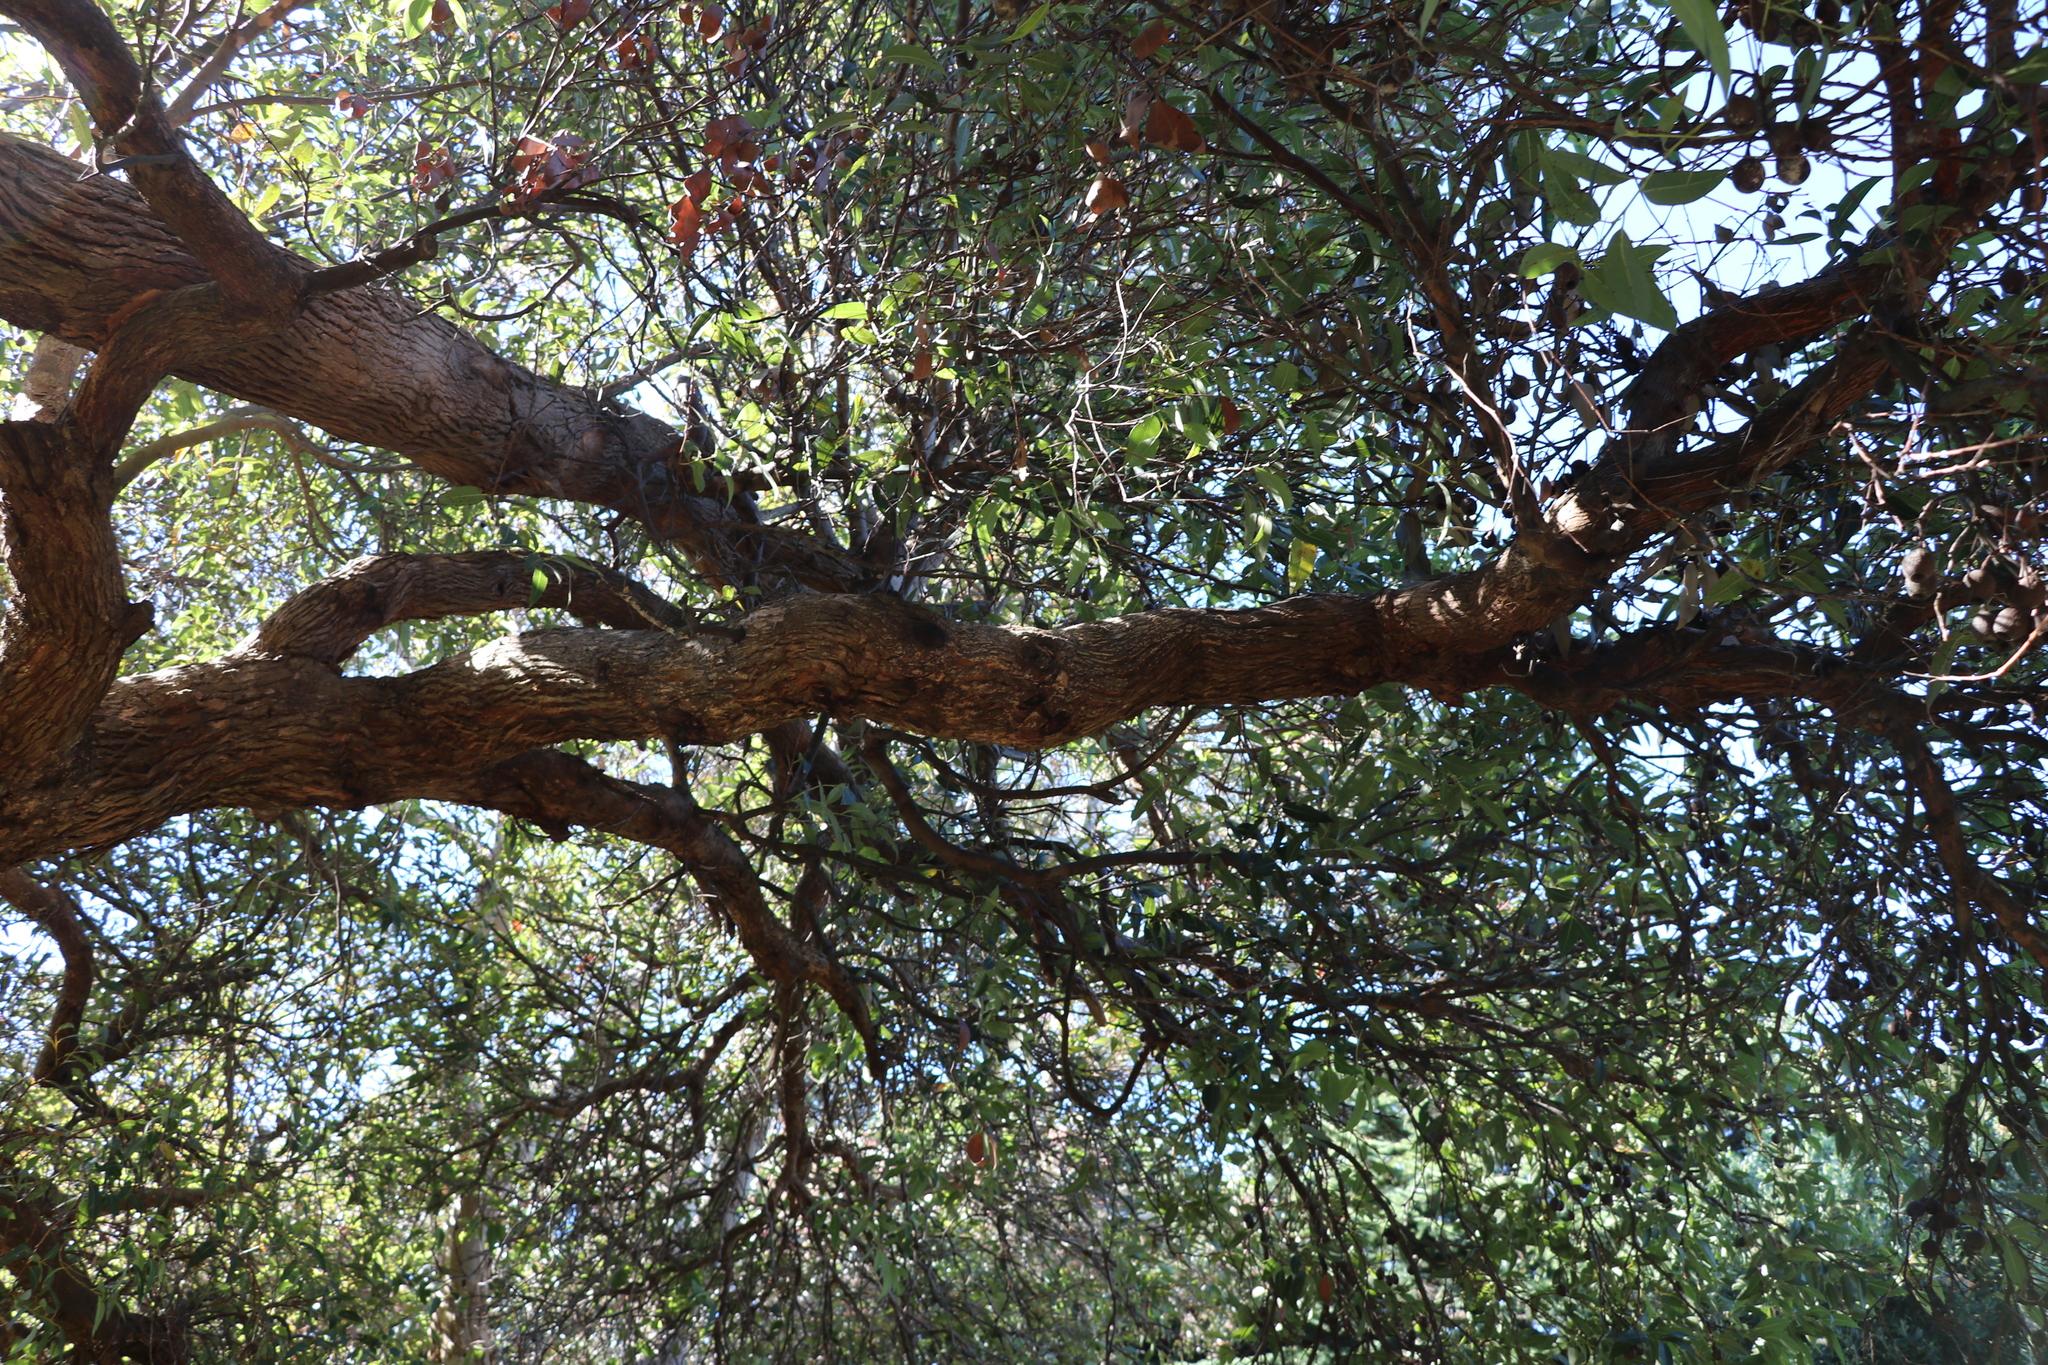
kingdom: Plantae
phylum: Tracheophyta
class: Magnoliopsida
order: Myrtales
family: Myrtaceae
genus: Corymbia
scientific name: Corymbia ficifolia
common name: Redflower gum
